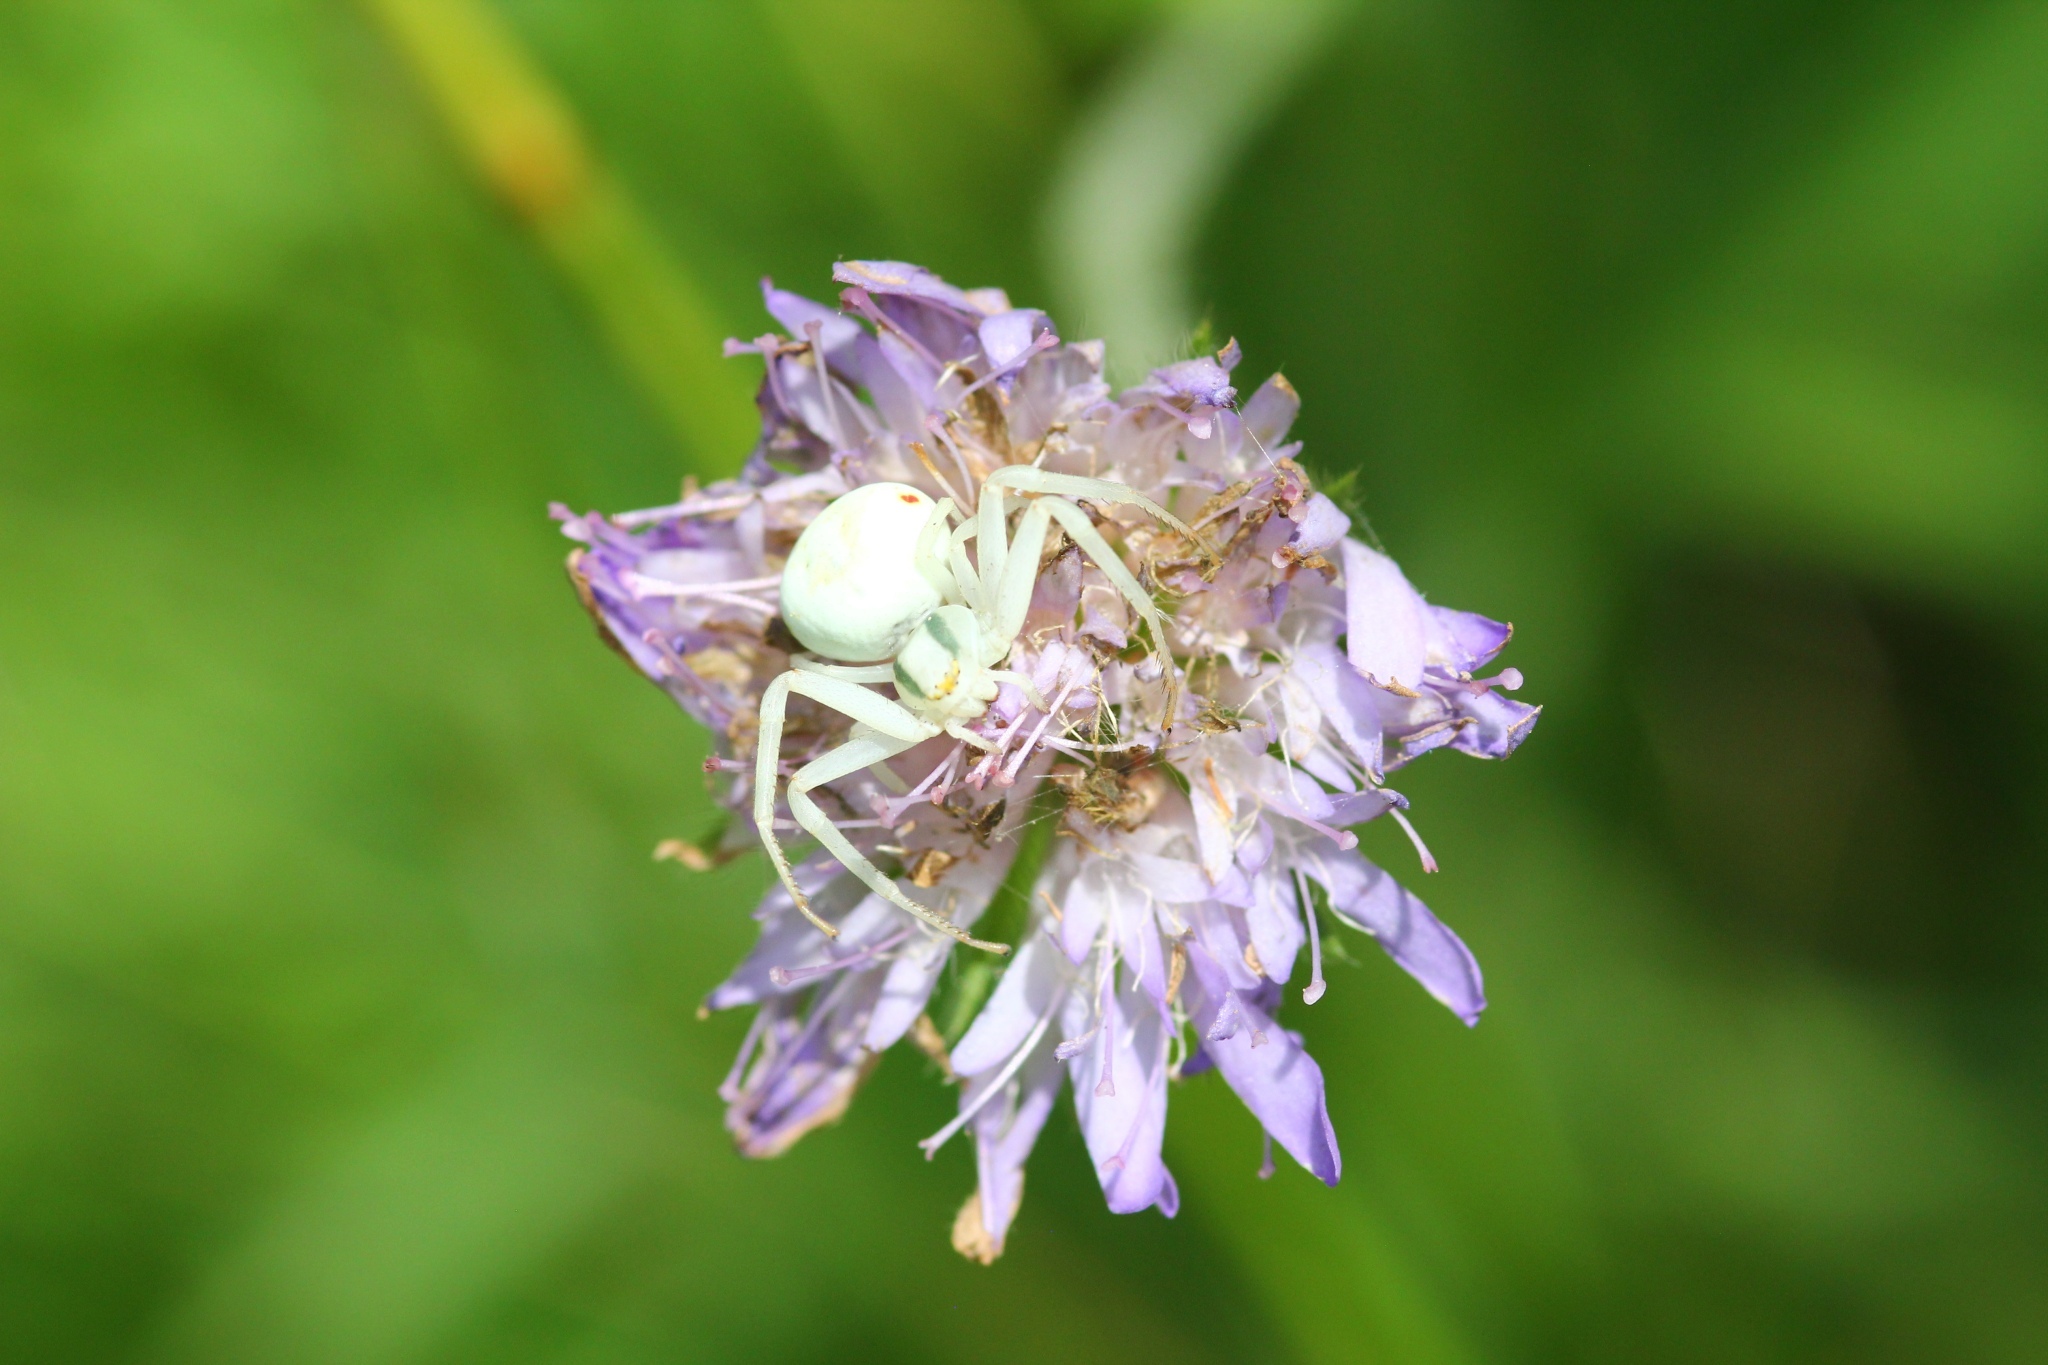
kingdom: Animalia
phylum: Arthropoda
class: Arachnida
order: Araneae
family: Thomisidae
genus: Misumena
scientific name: Misumena vatia
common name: Goldenrod crab spider
